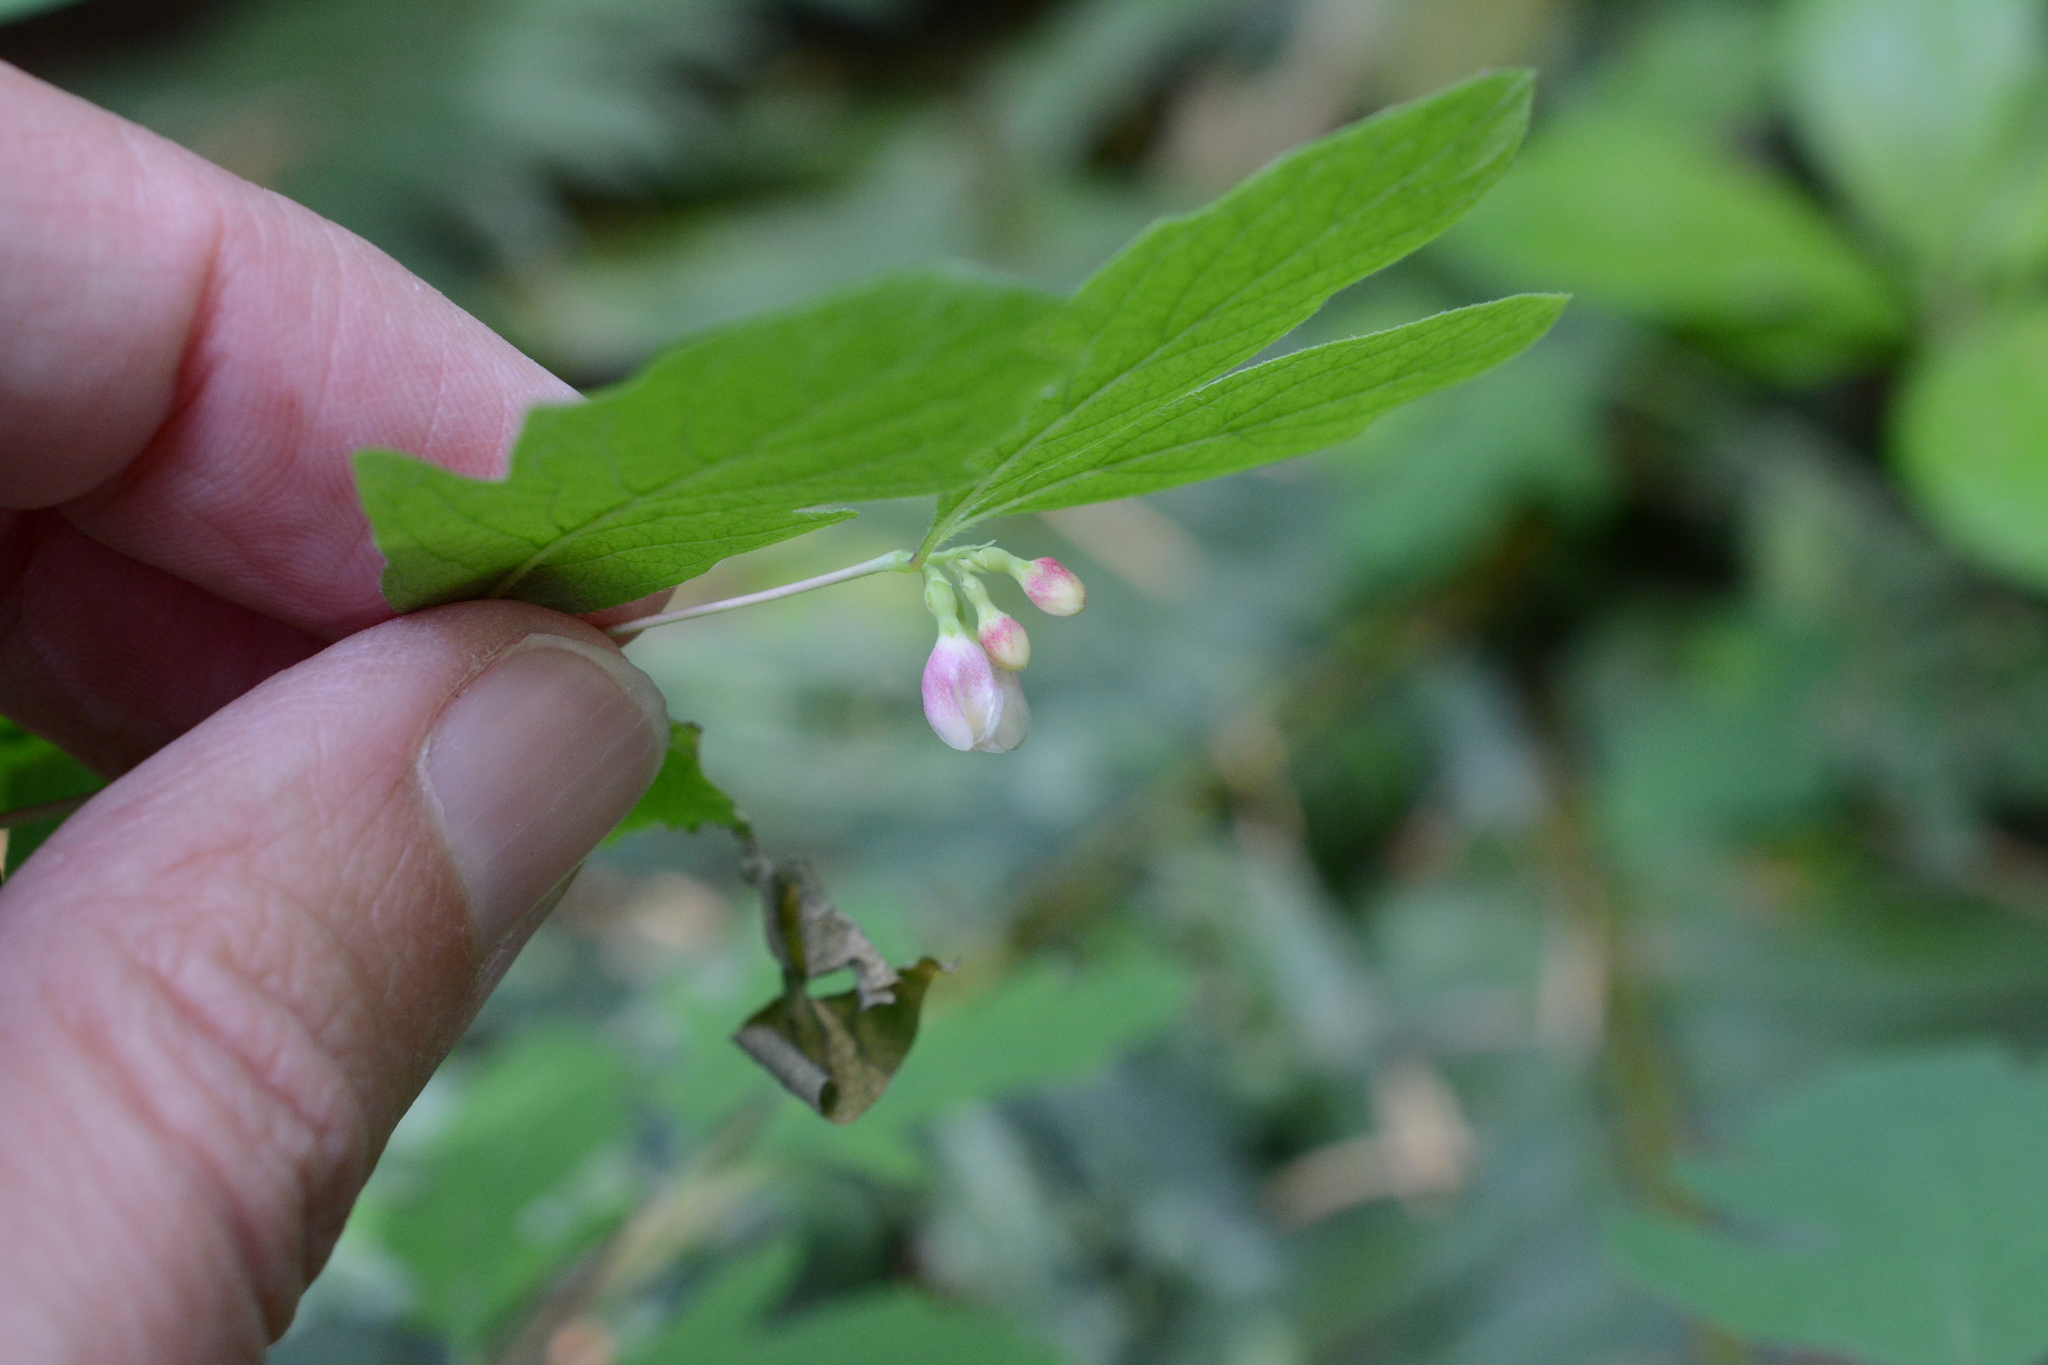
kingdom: Plantae
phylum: Tracheophyta
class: Magnoliopsida
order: Dipsacales
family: Caprifoliaceae
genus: Symphoricarpos
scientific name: Symphoricarpos mollis
